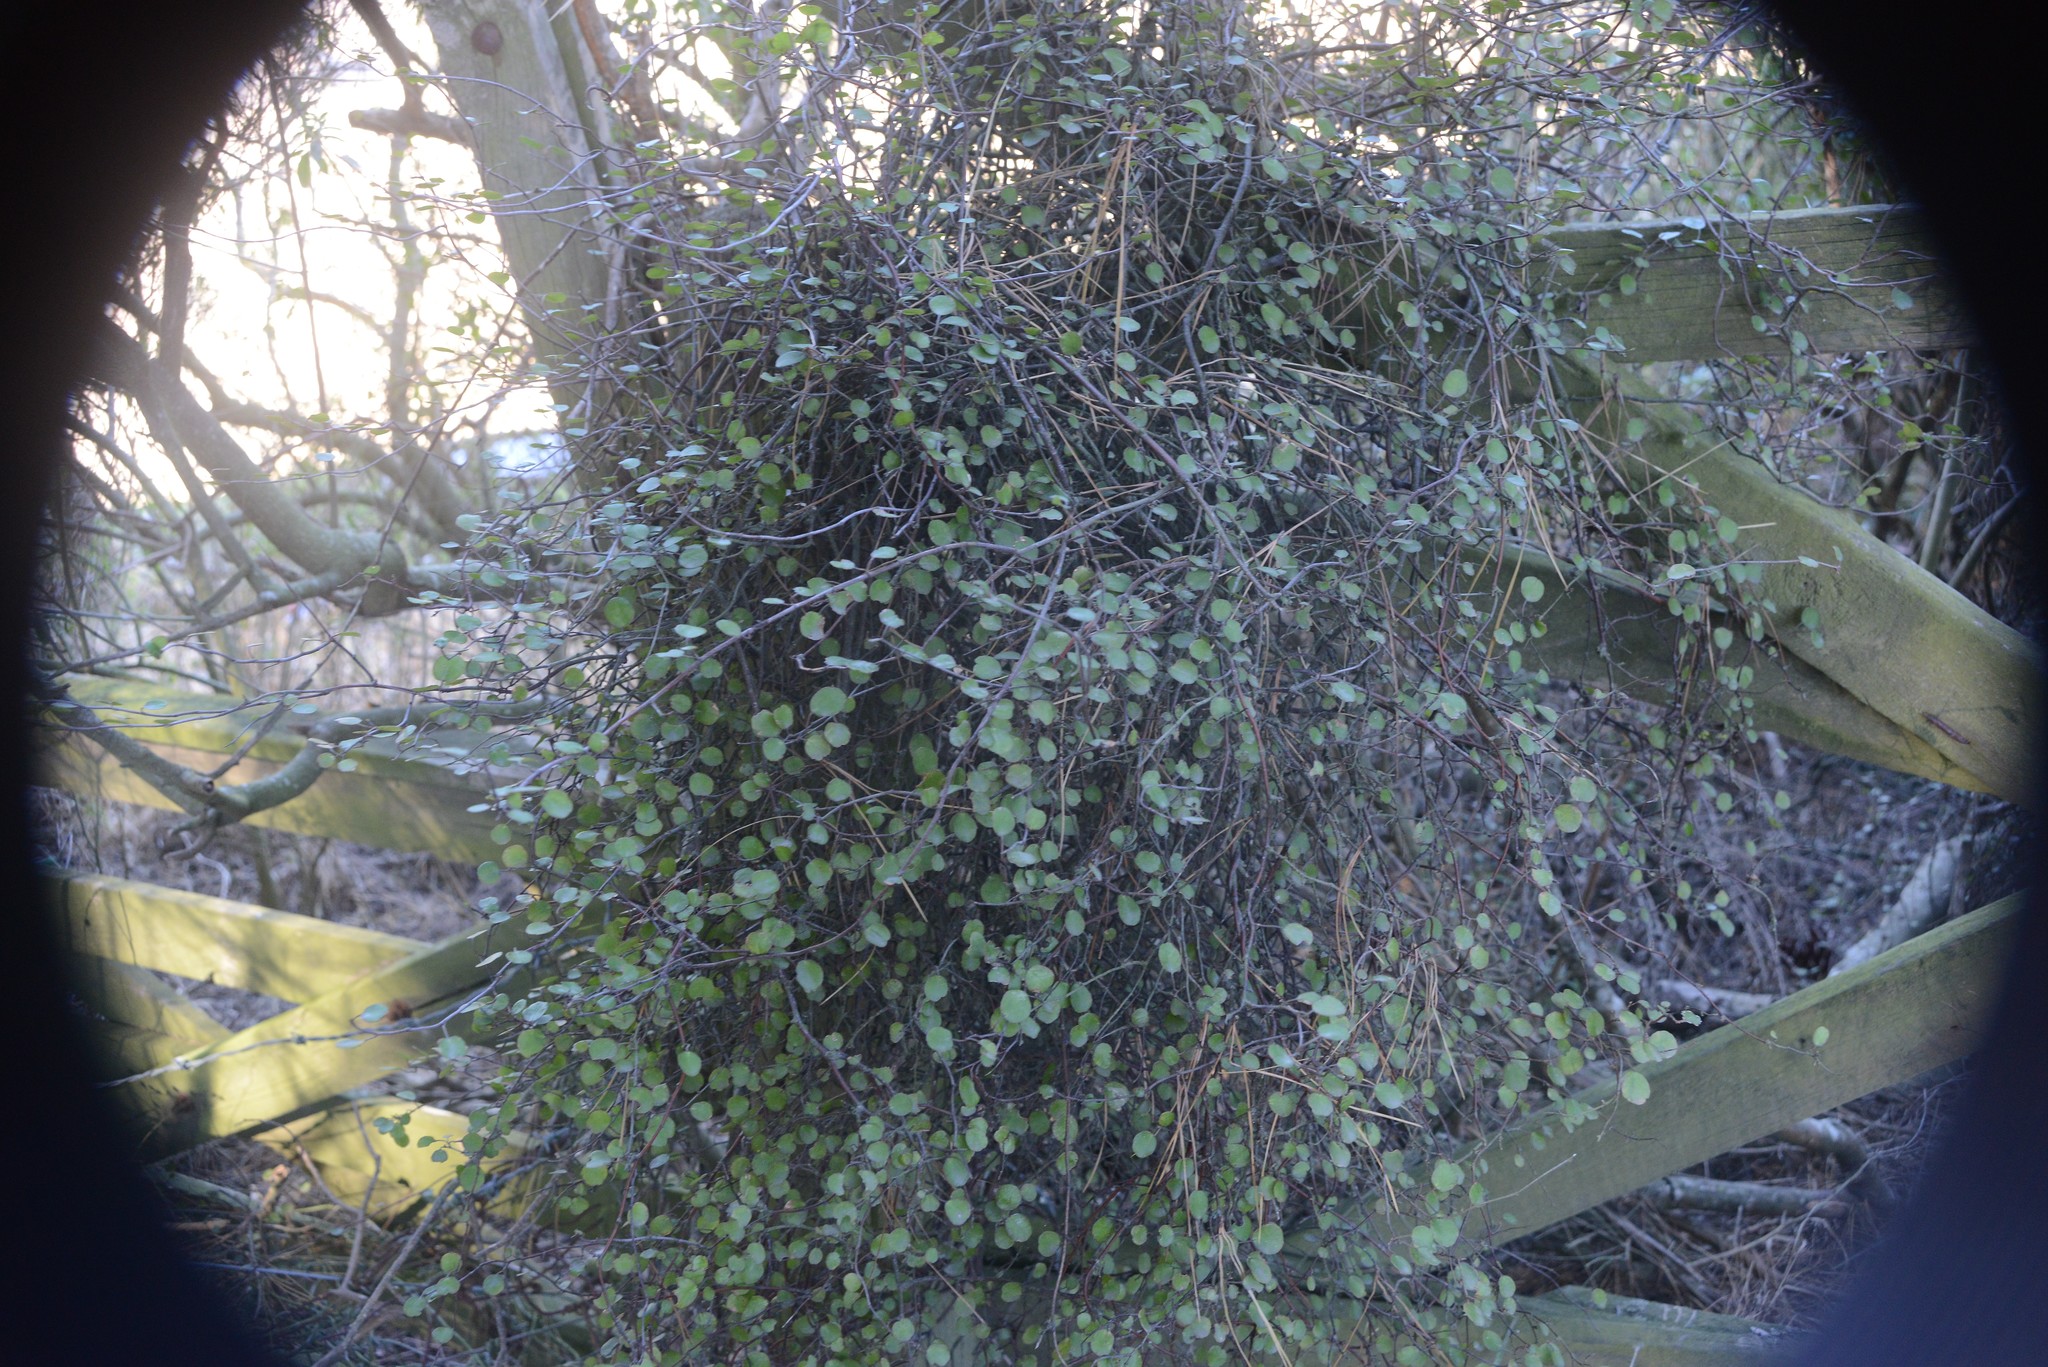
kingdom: Plantae
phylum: Tracheophyta
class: Magnoliopsida
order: Caryophyllales
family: Polygonaceae
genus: Muehlenbeckia
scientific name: Muehlenbeckia complexa
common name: Wireplant
